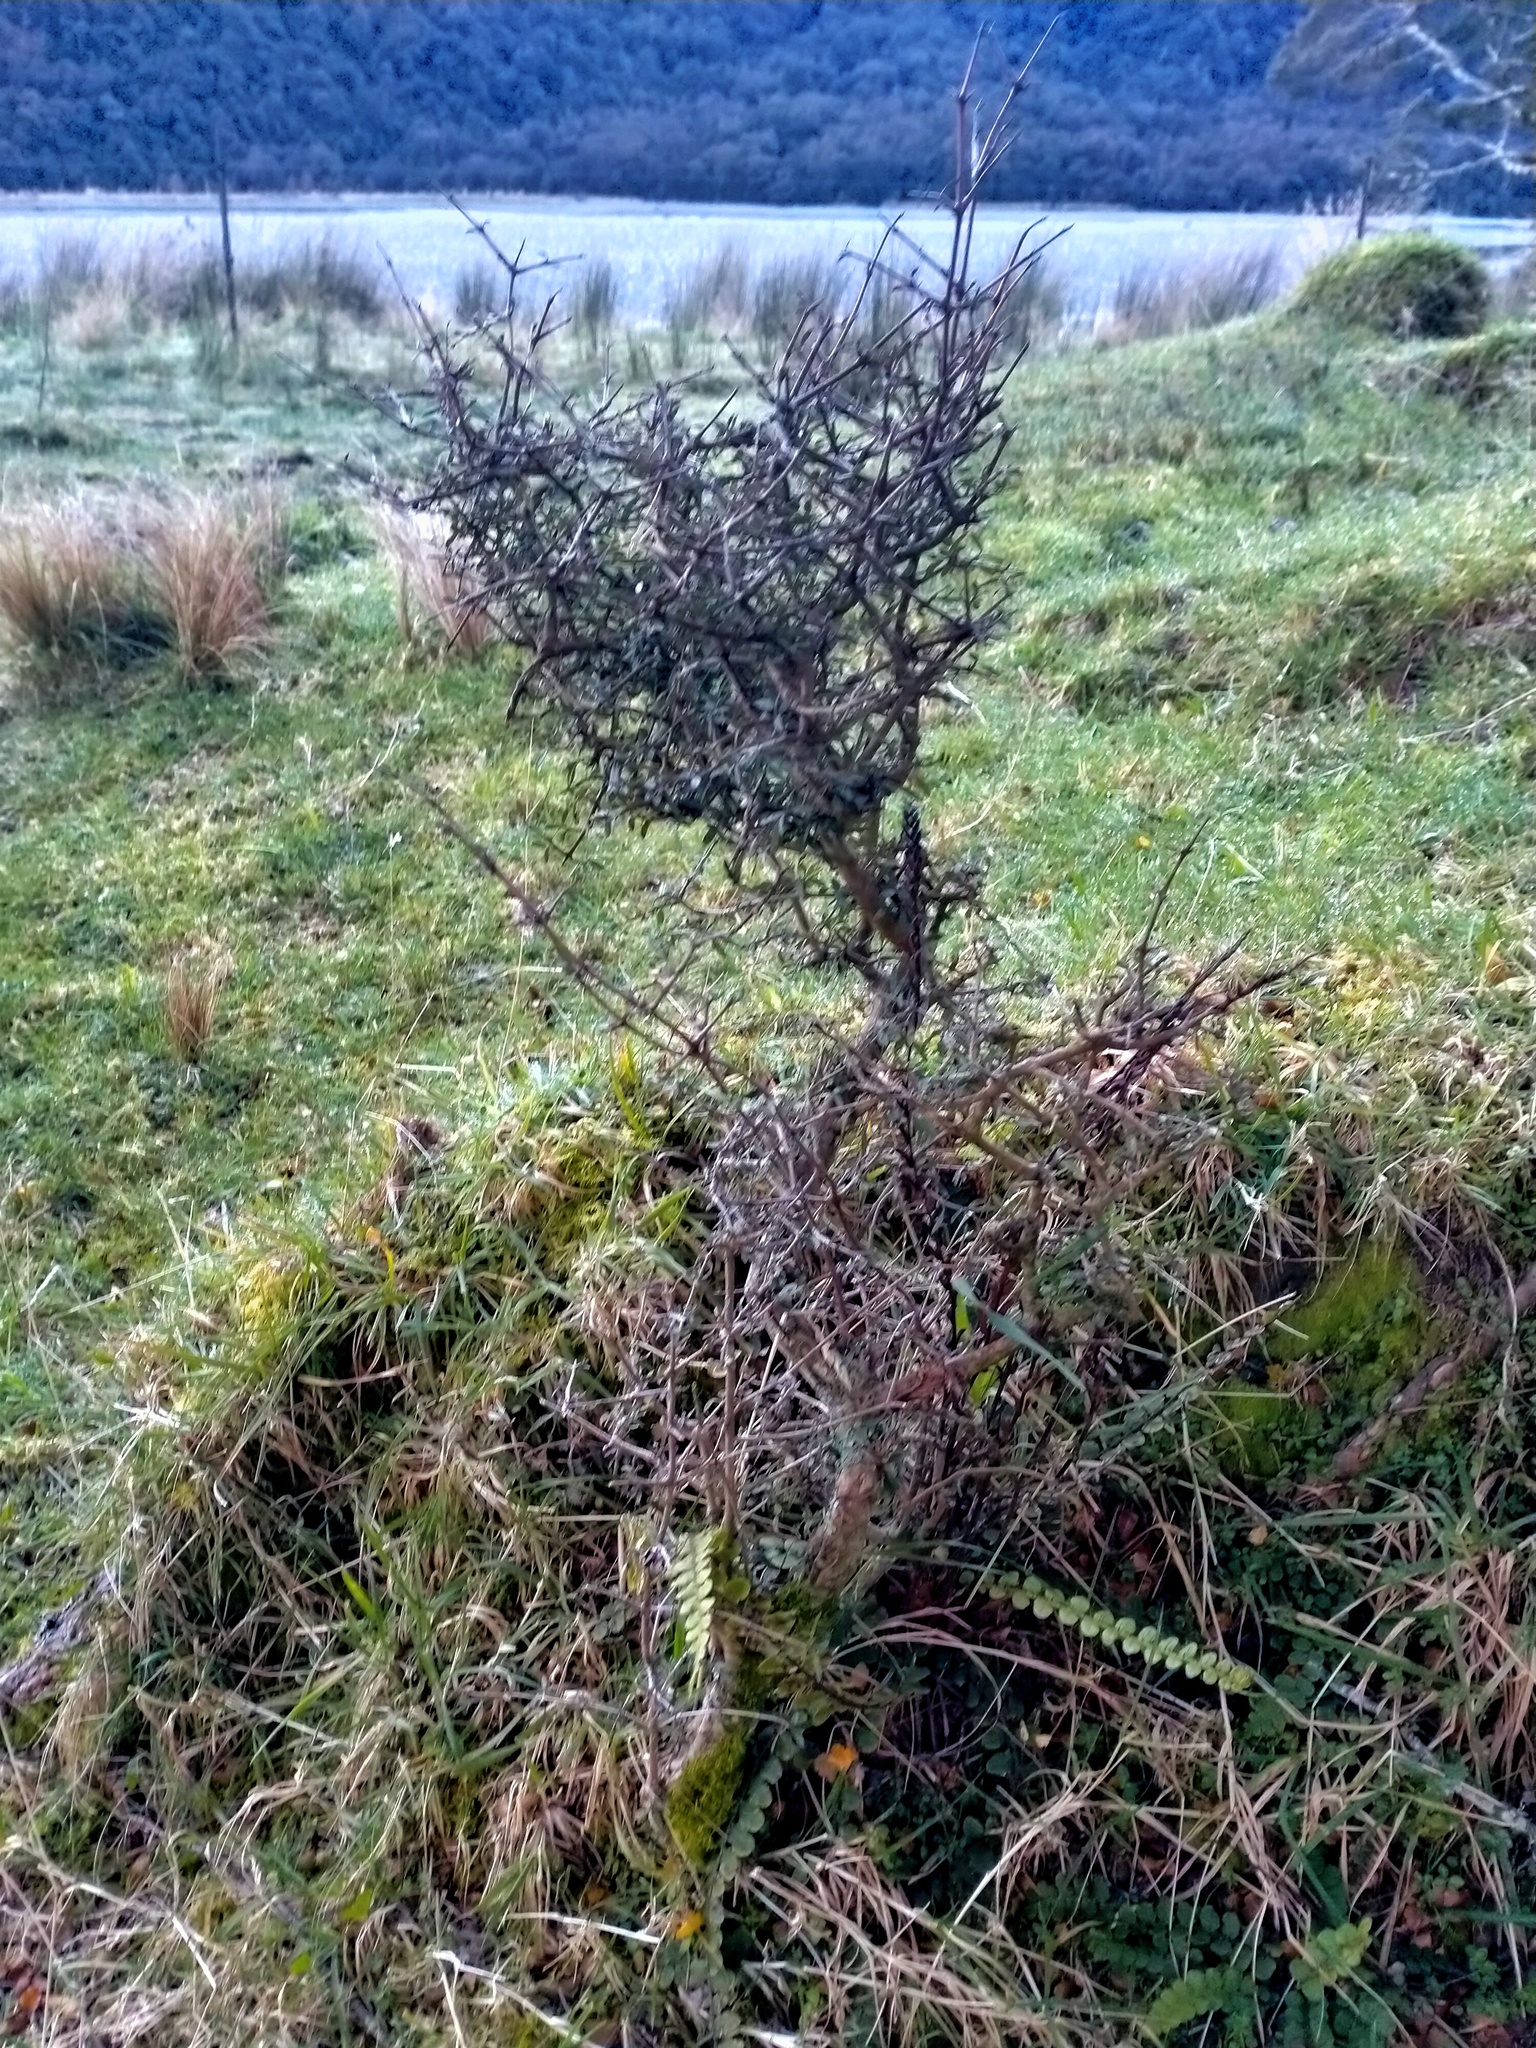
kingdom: Plantae
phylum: Tracheophyta
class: Magnoliopsida
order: Gentianales
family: Rubiaceae
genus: Coprosma
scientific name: Coprosma propinqua
